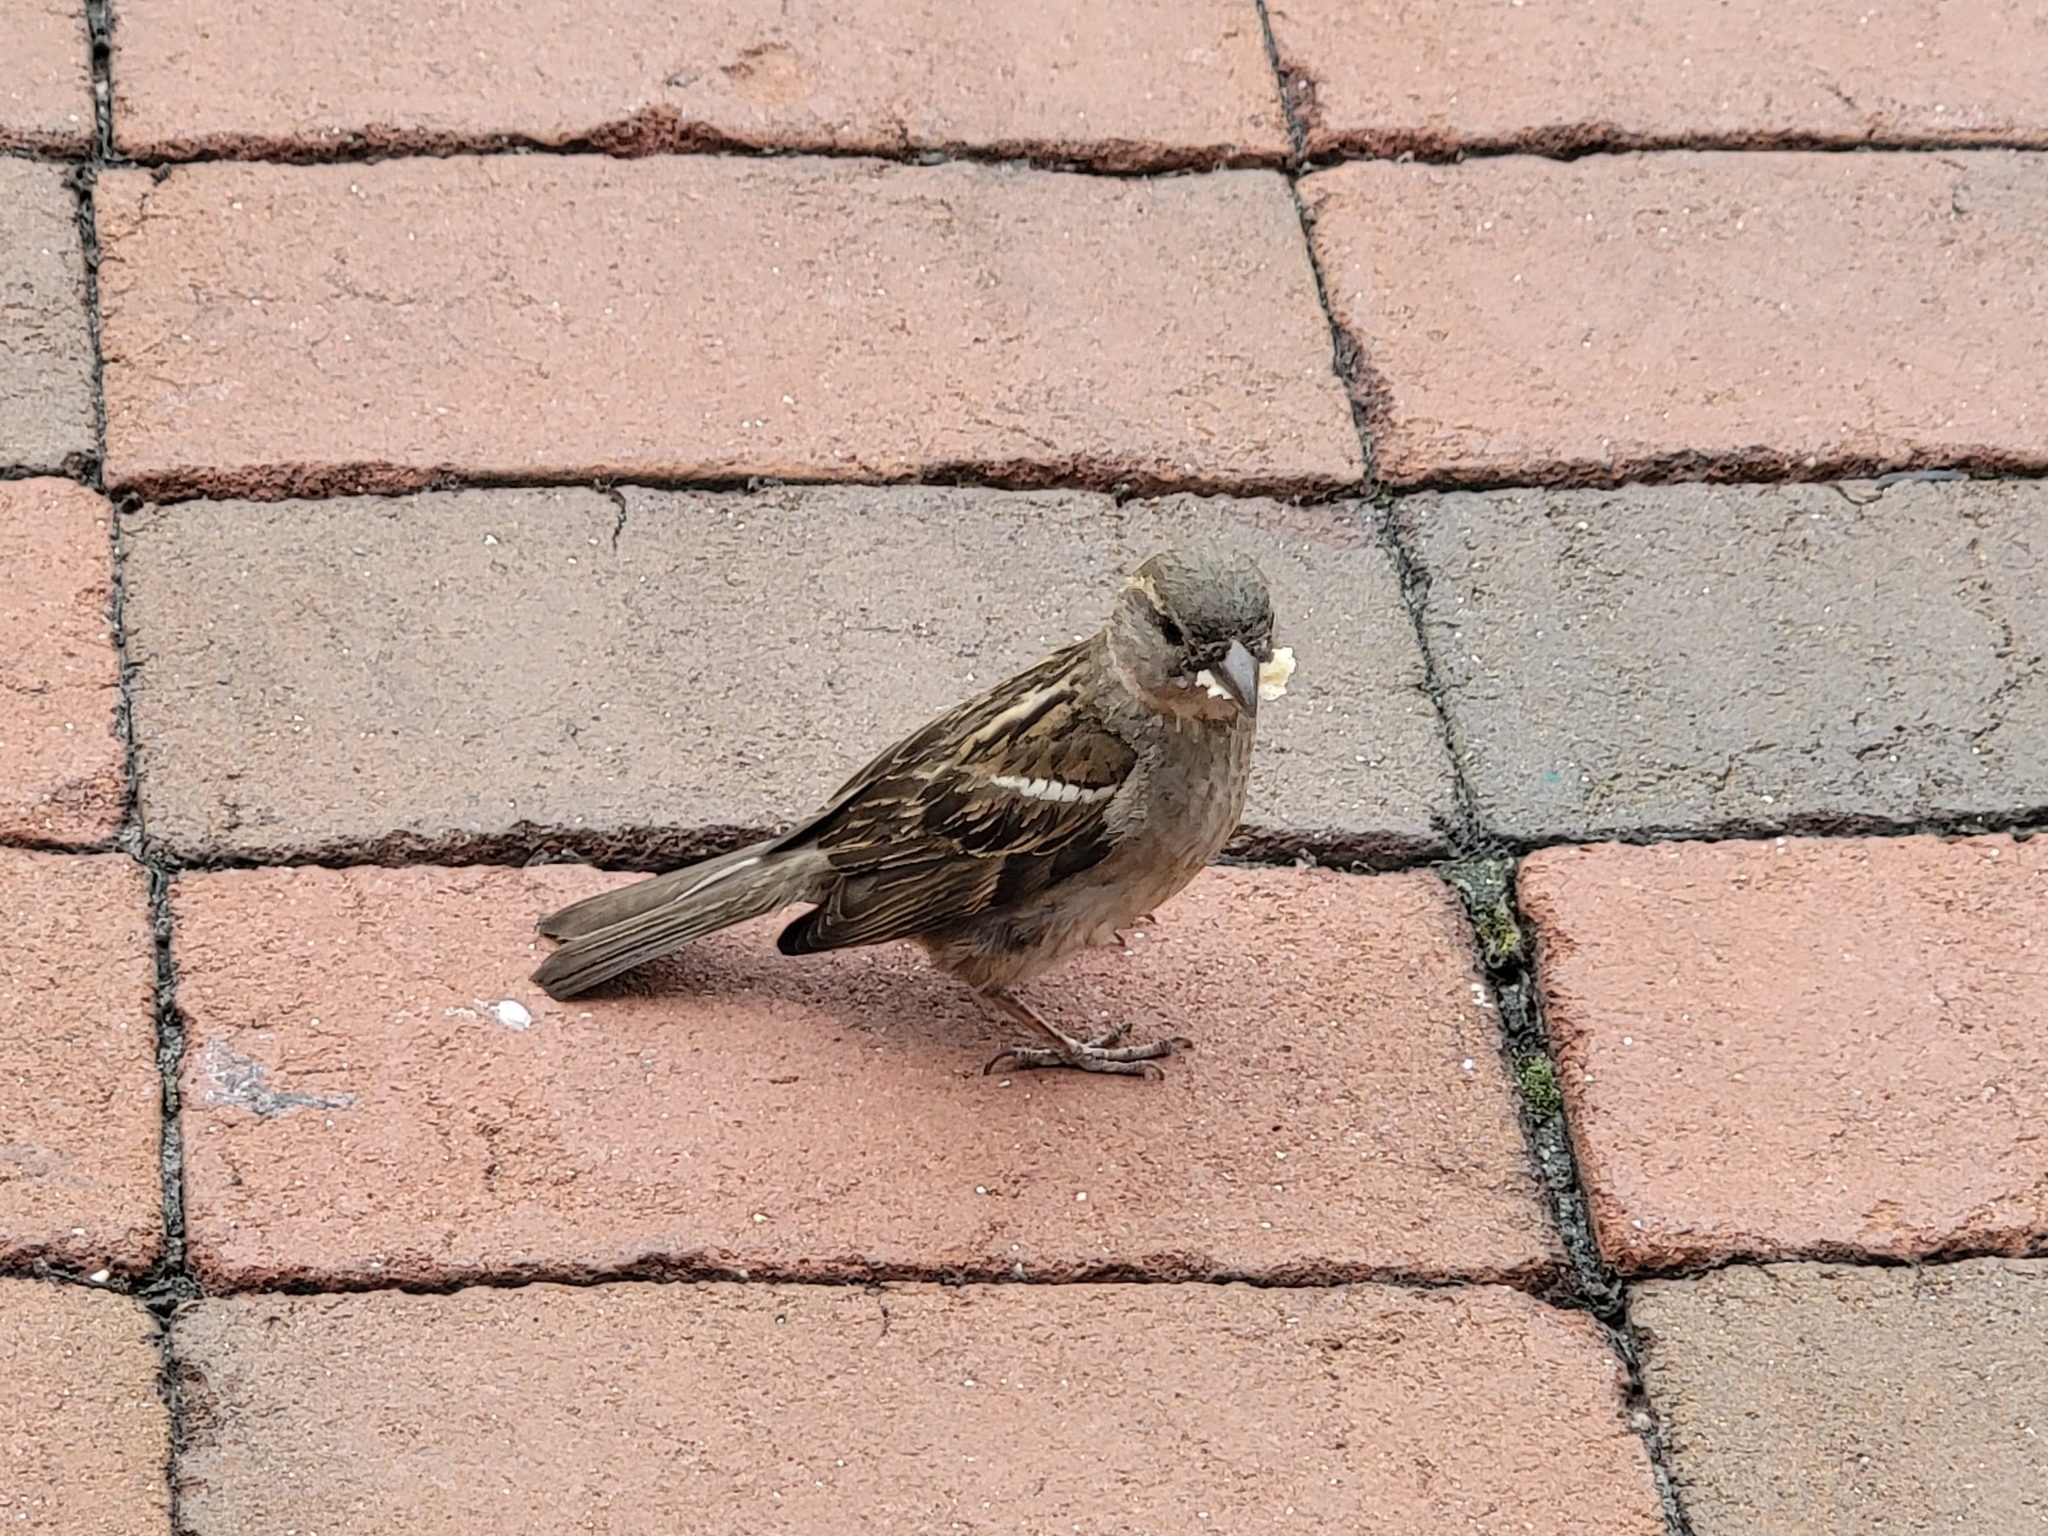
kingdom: Animalia
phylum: Chordata
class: Aves
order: Passeriformes
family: Passeridae
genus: Passer
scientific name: Passer domesticus
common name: House sparrow
